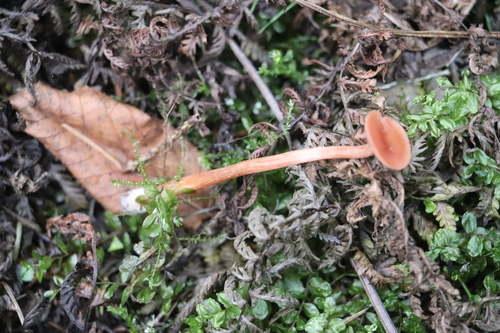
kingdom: Fungi
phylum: Basidiomycota
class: Agaricomycetes
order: Agaricales
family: Hydnangiaceae
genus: Laccaria
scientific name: Laccaria laccata
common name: Deceiver
